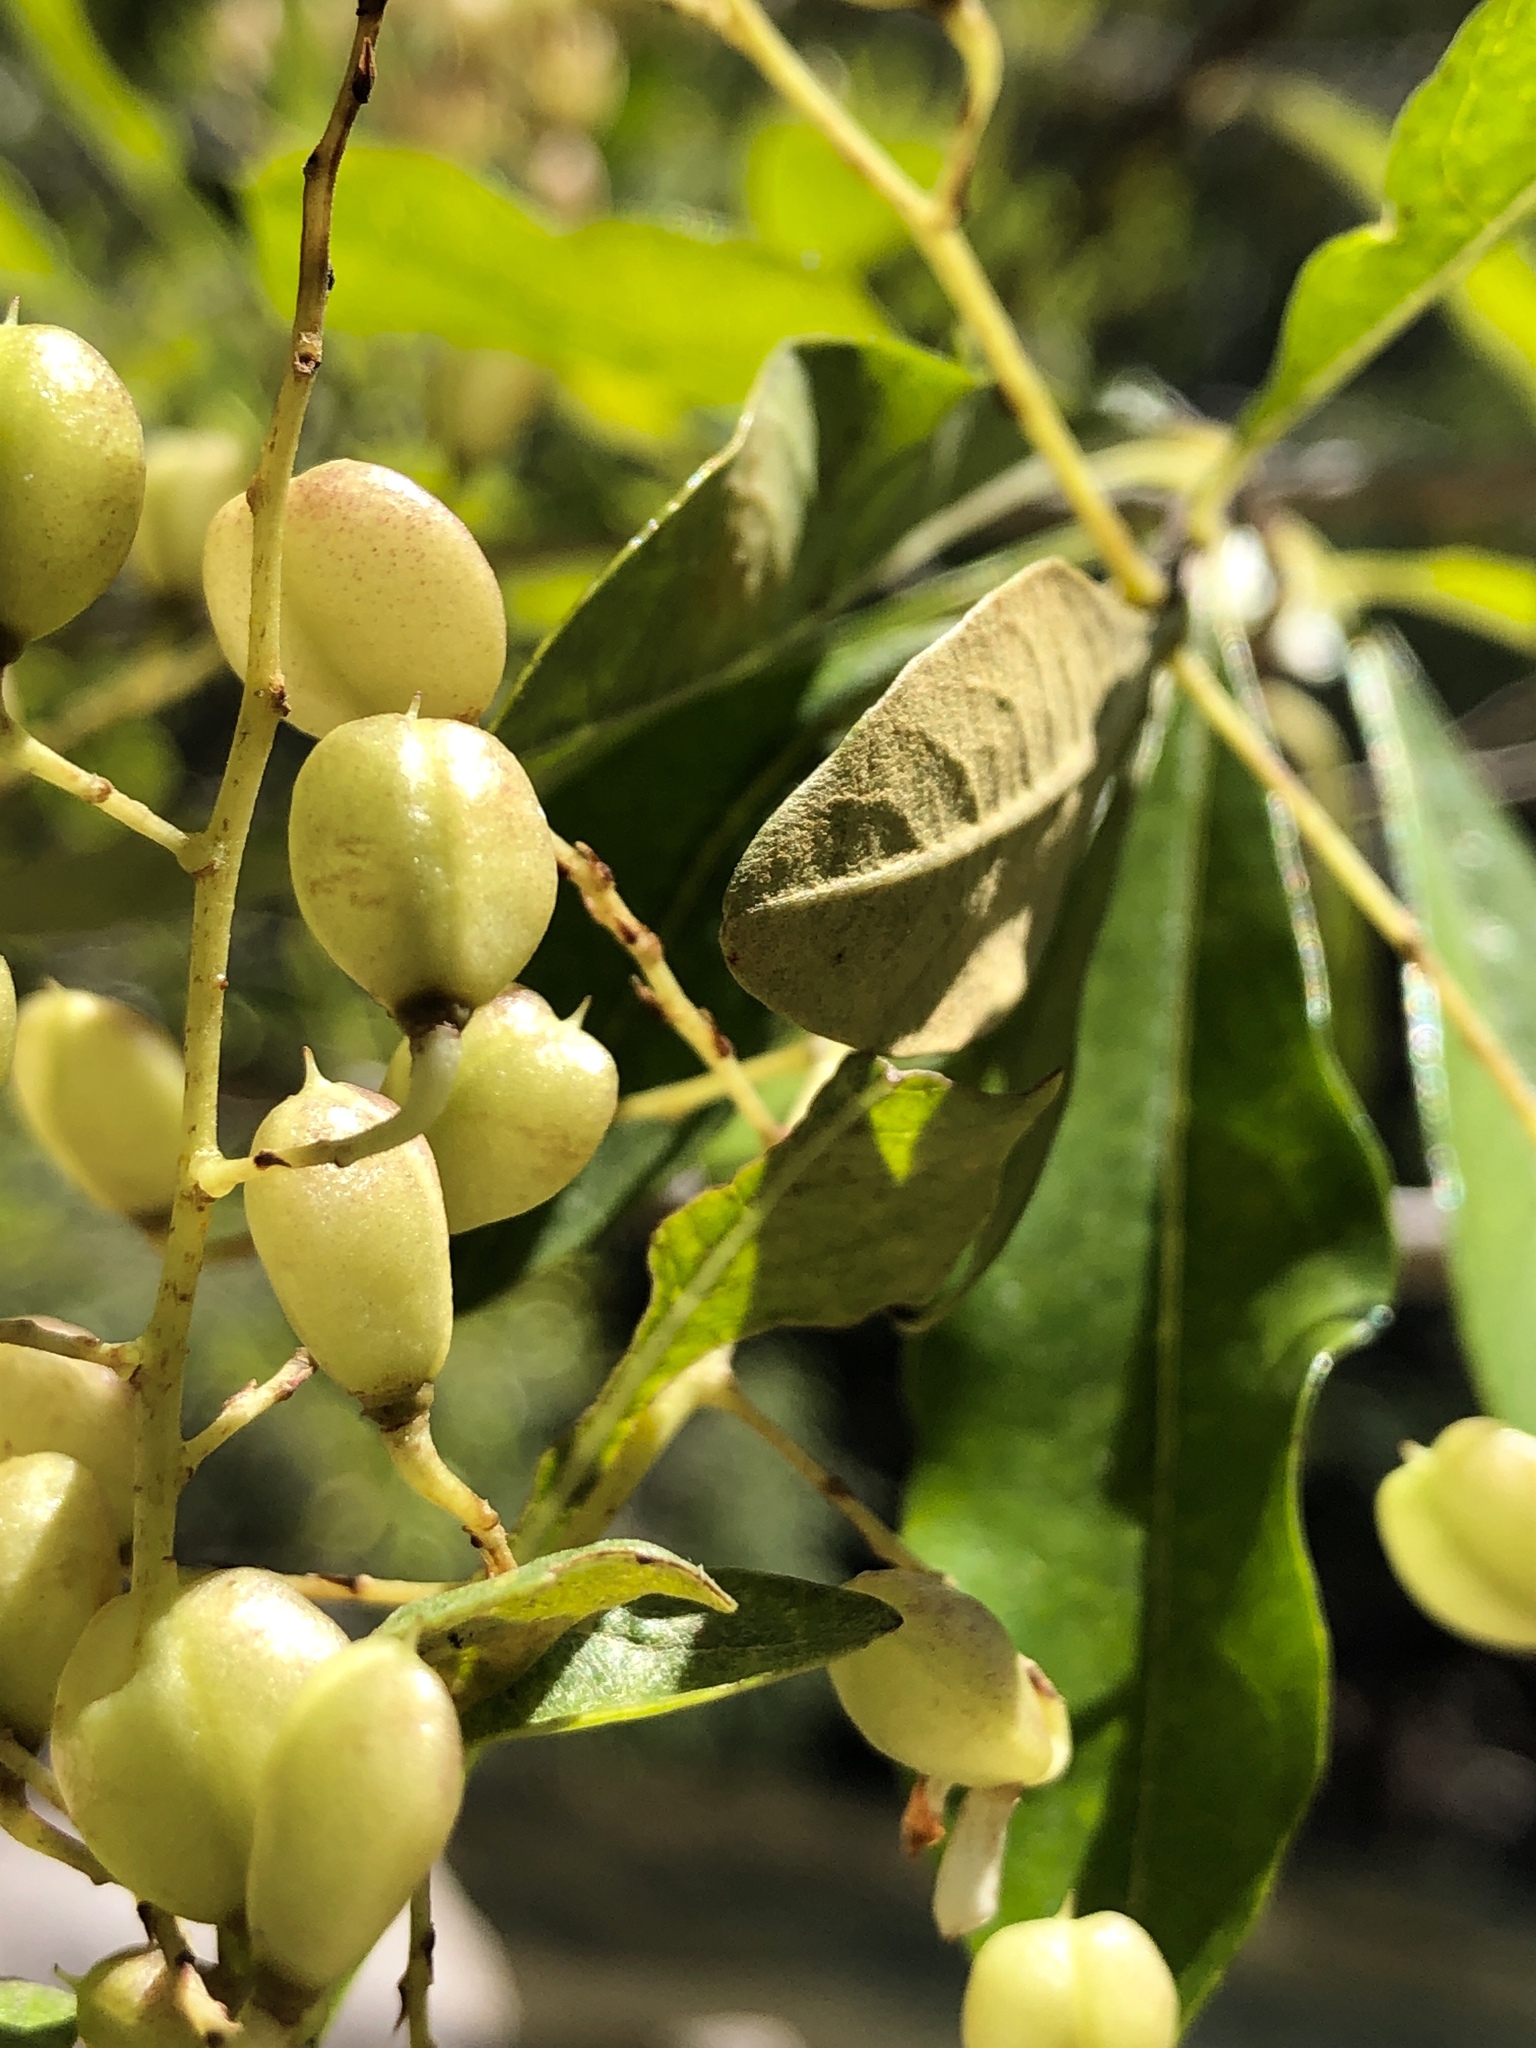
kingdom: Plantae
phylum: Tracheophyta
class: Magnoliopsida
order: Apiales
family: Pittosporaceae
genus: Bursaria
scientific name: Bursaria tenuifolia
